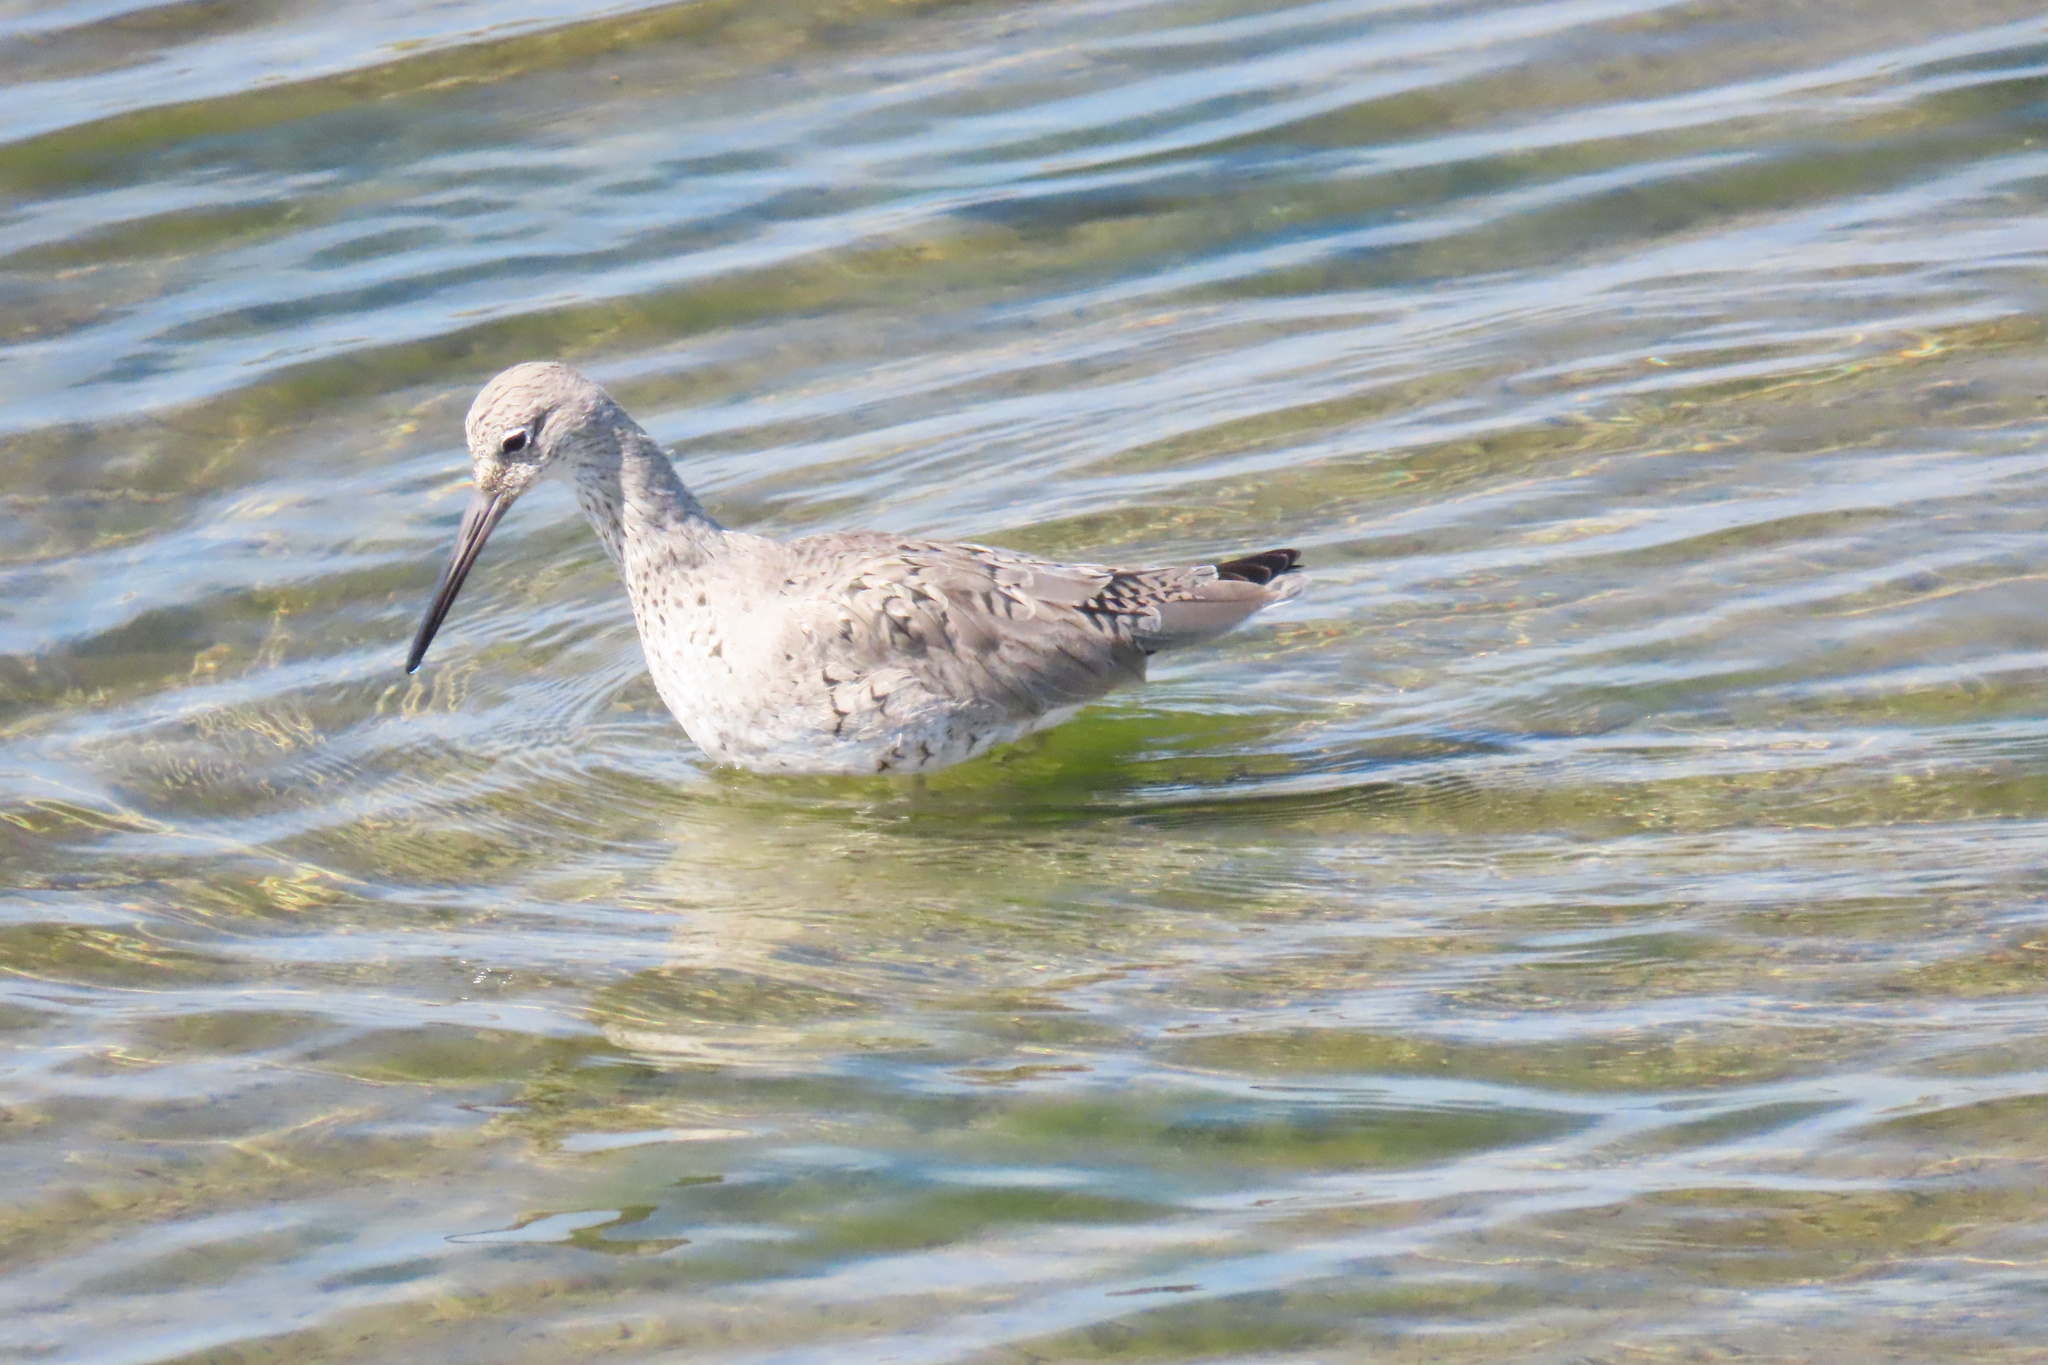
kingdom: Animalia
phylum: Chordata
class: Aves
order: Charadriiformes
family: Scolopacidae
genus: Tringa
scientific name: Tringa semipalmata
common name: Willet
